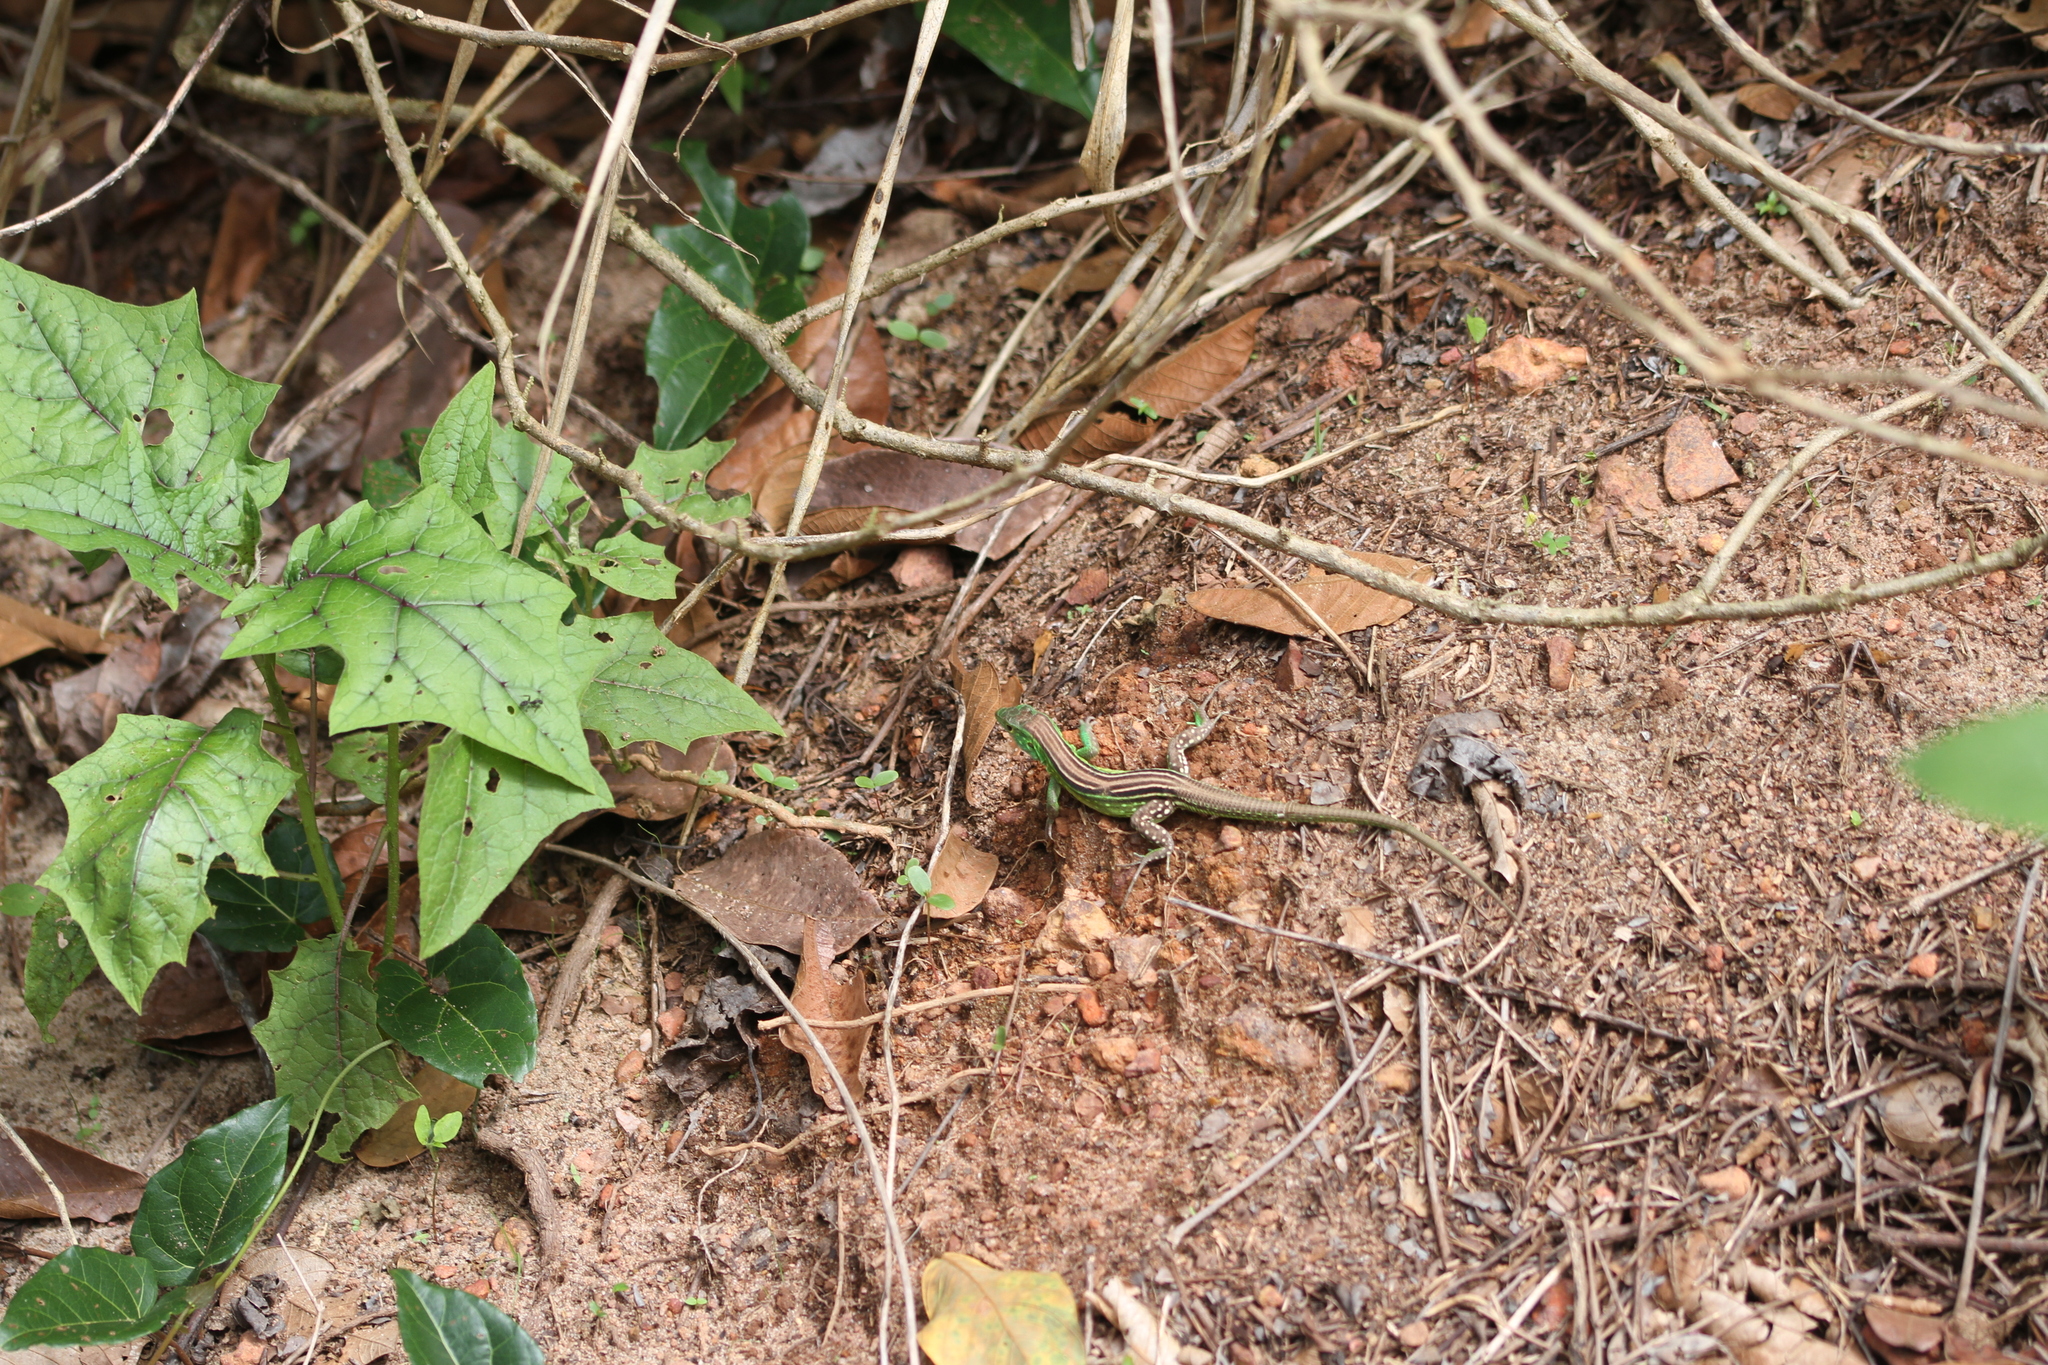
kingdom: Animalia
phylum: Chordata
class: Squamata
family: Teiidae
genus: Cnemidophorus
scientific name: Cnemidophorus lemniscatus
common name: Rainbow whiptail
